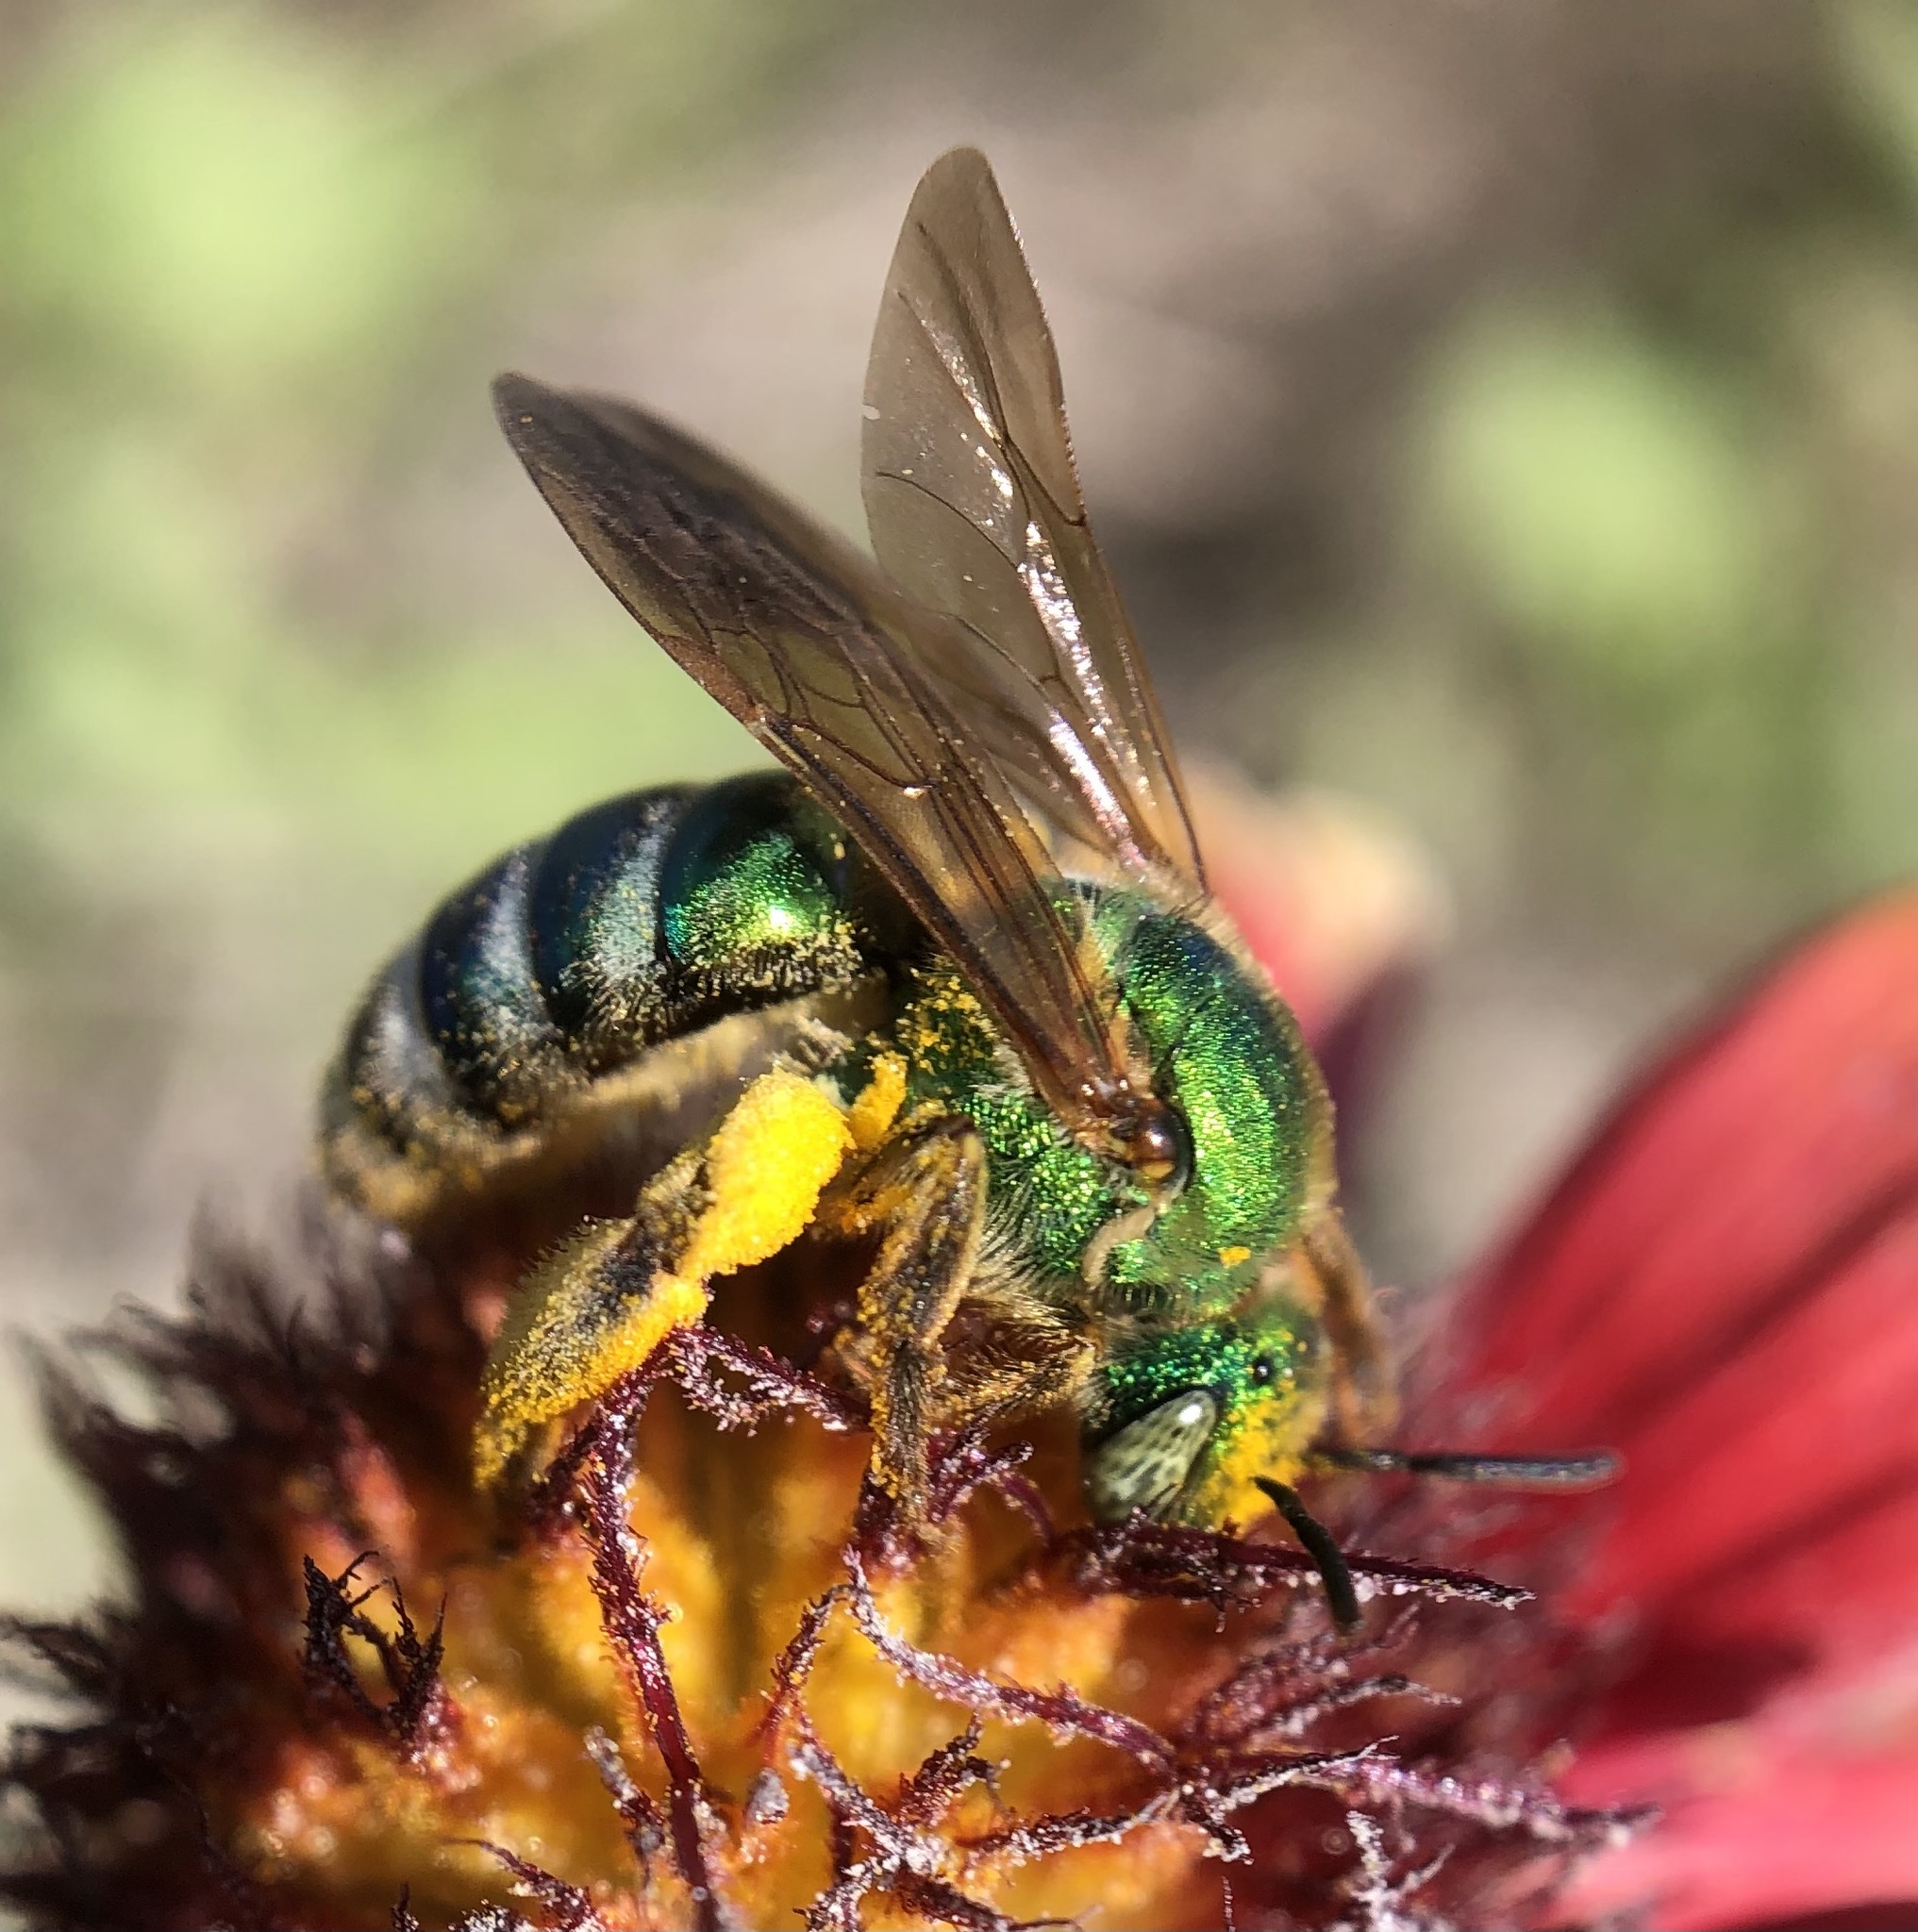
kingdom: Animalia
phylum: Arthropoda
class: Insecta
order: Hymenoptera
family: Halictidae
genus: Agapostemon
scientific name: Agapostemon splendens
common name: Brown-winged striped sweat bee
